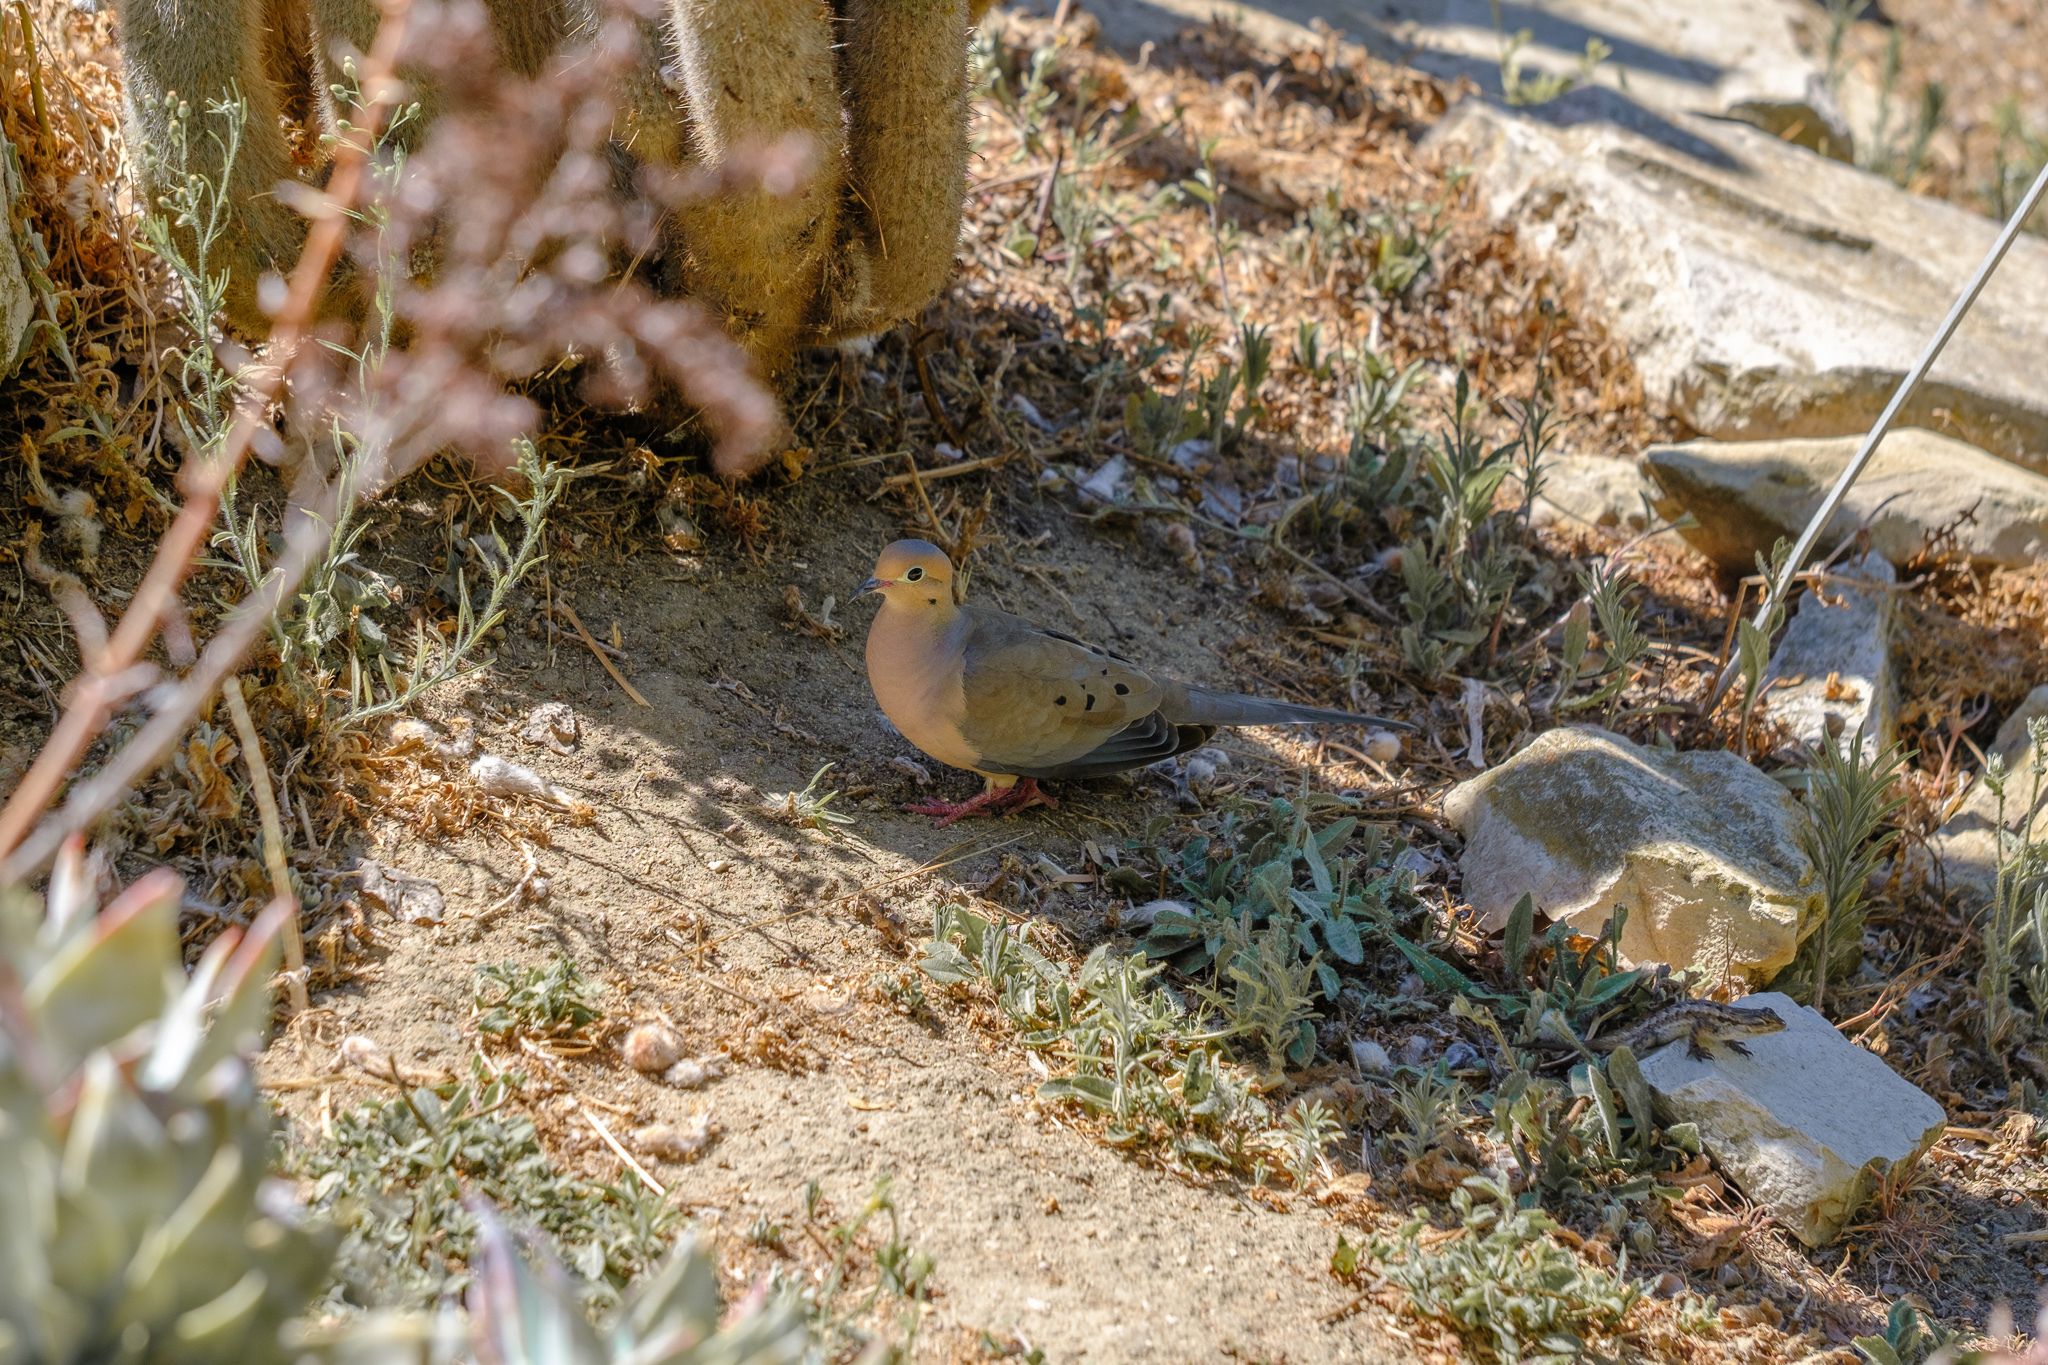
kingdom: Animalia
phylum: Chordata
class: Aves
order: Columbiformes
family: Columbidae
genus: Zenaida
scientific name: Zenaida macroura
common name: Mourning dove
